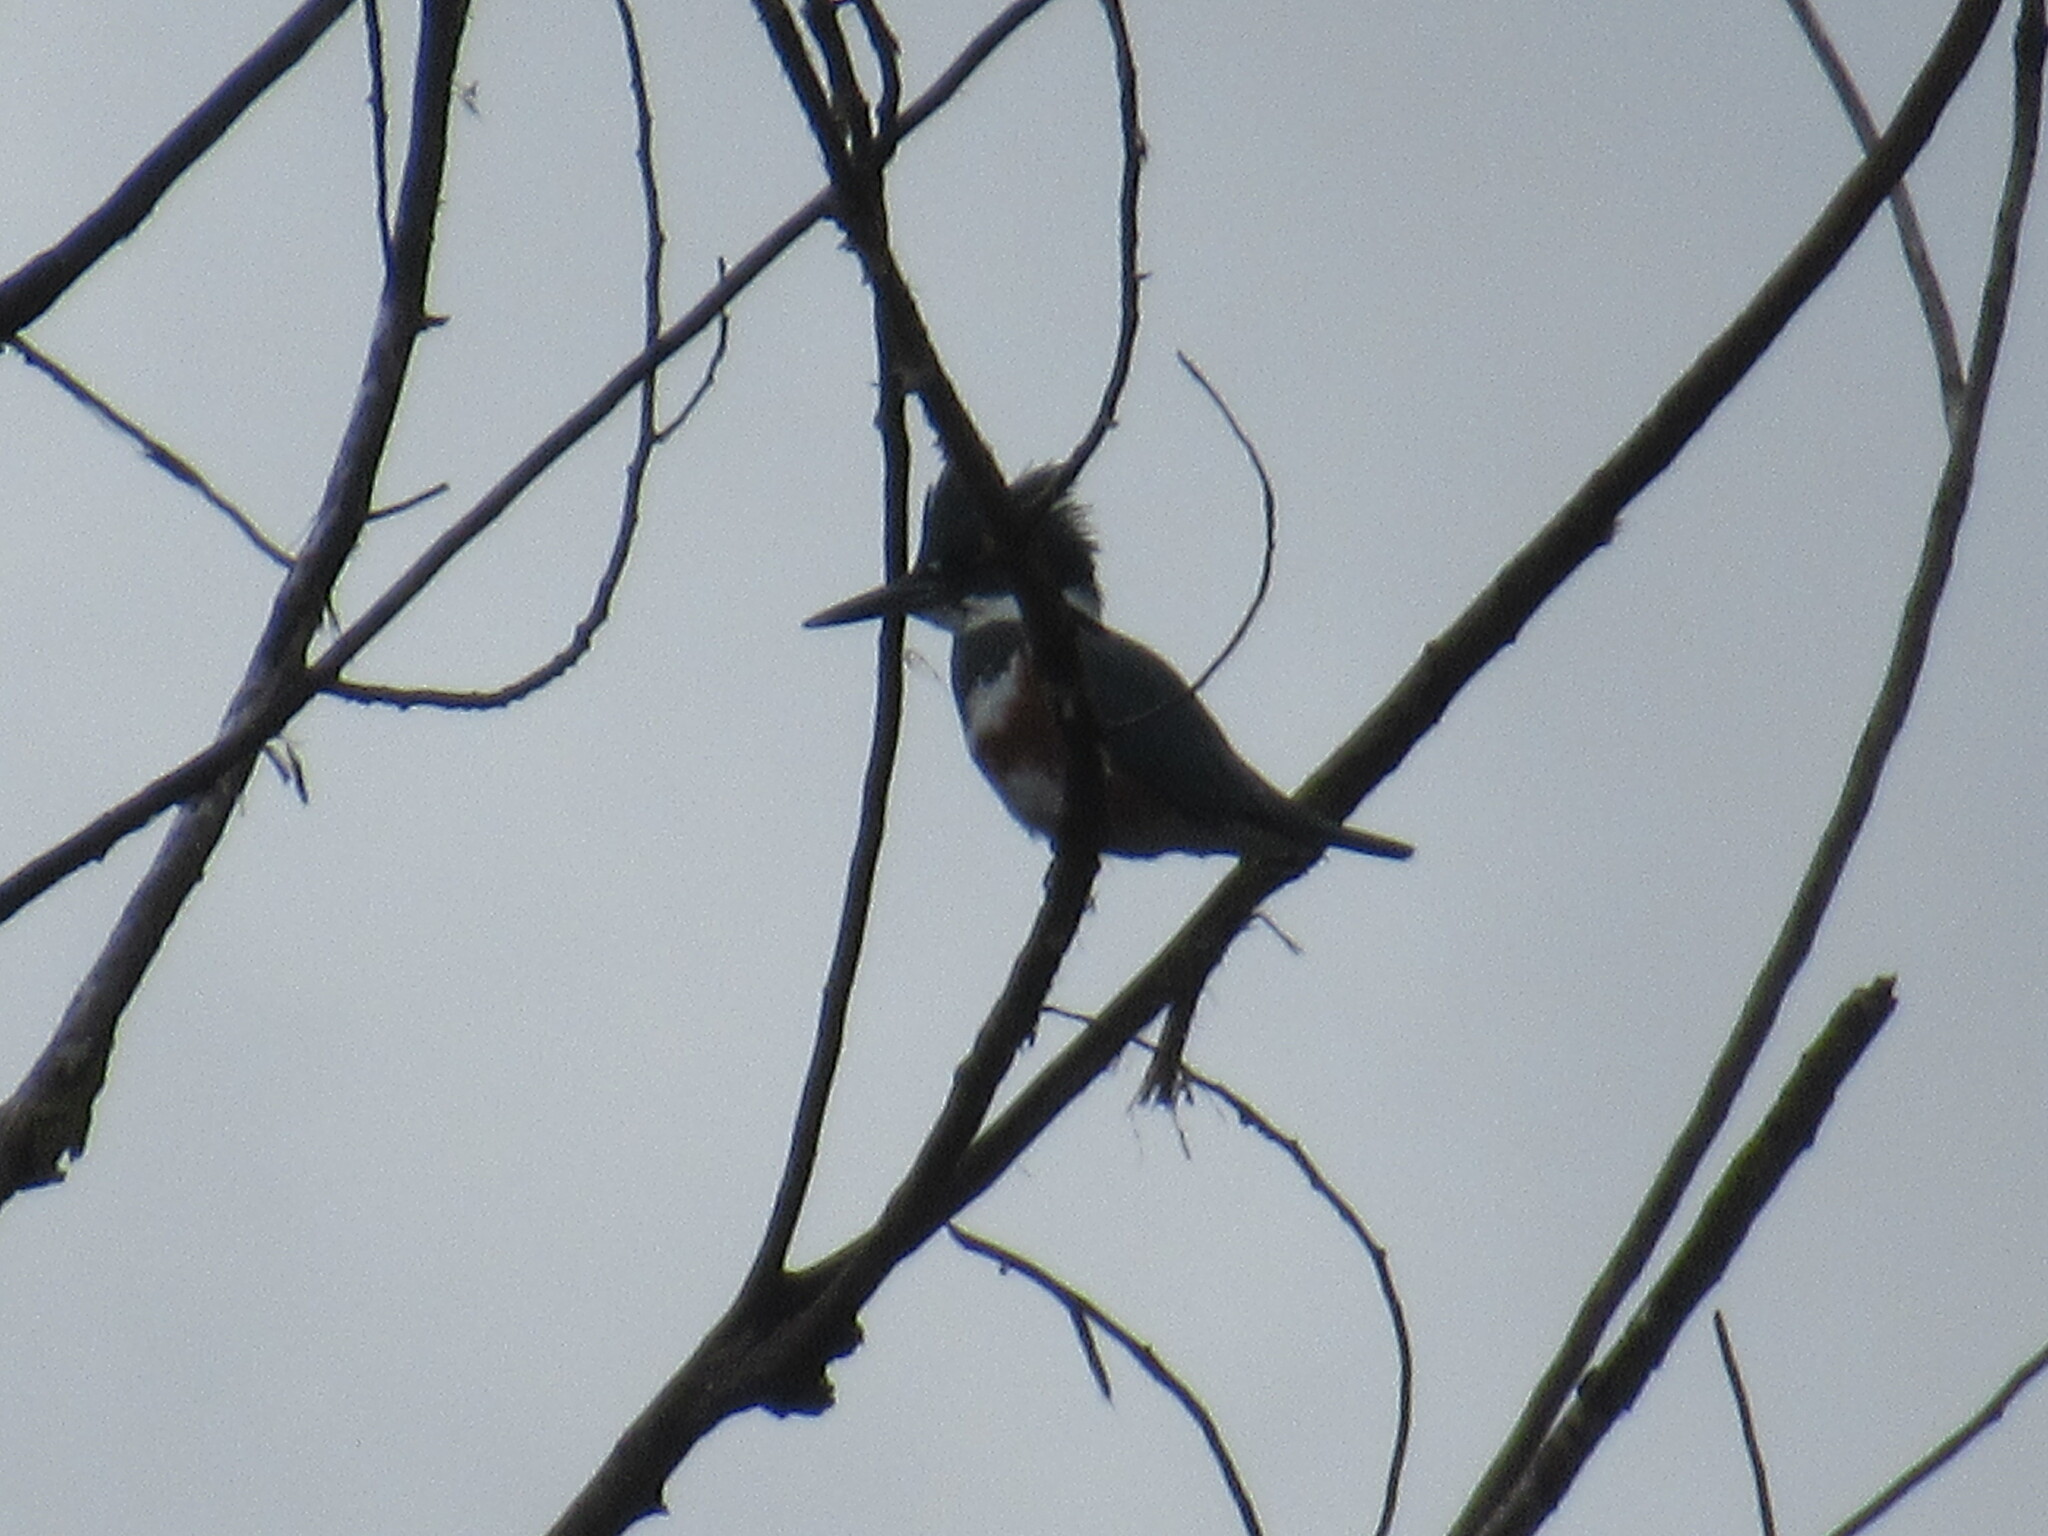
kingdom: Animalia
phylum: Chordata
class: Aves
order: Coraciiformes
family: Alcedinidae
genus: Megaceryle
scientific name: Megaceryle alcyon
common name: Belted kingfisher
